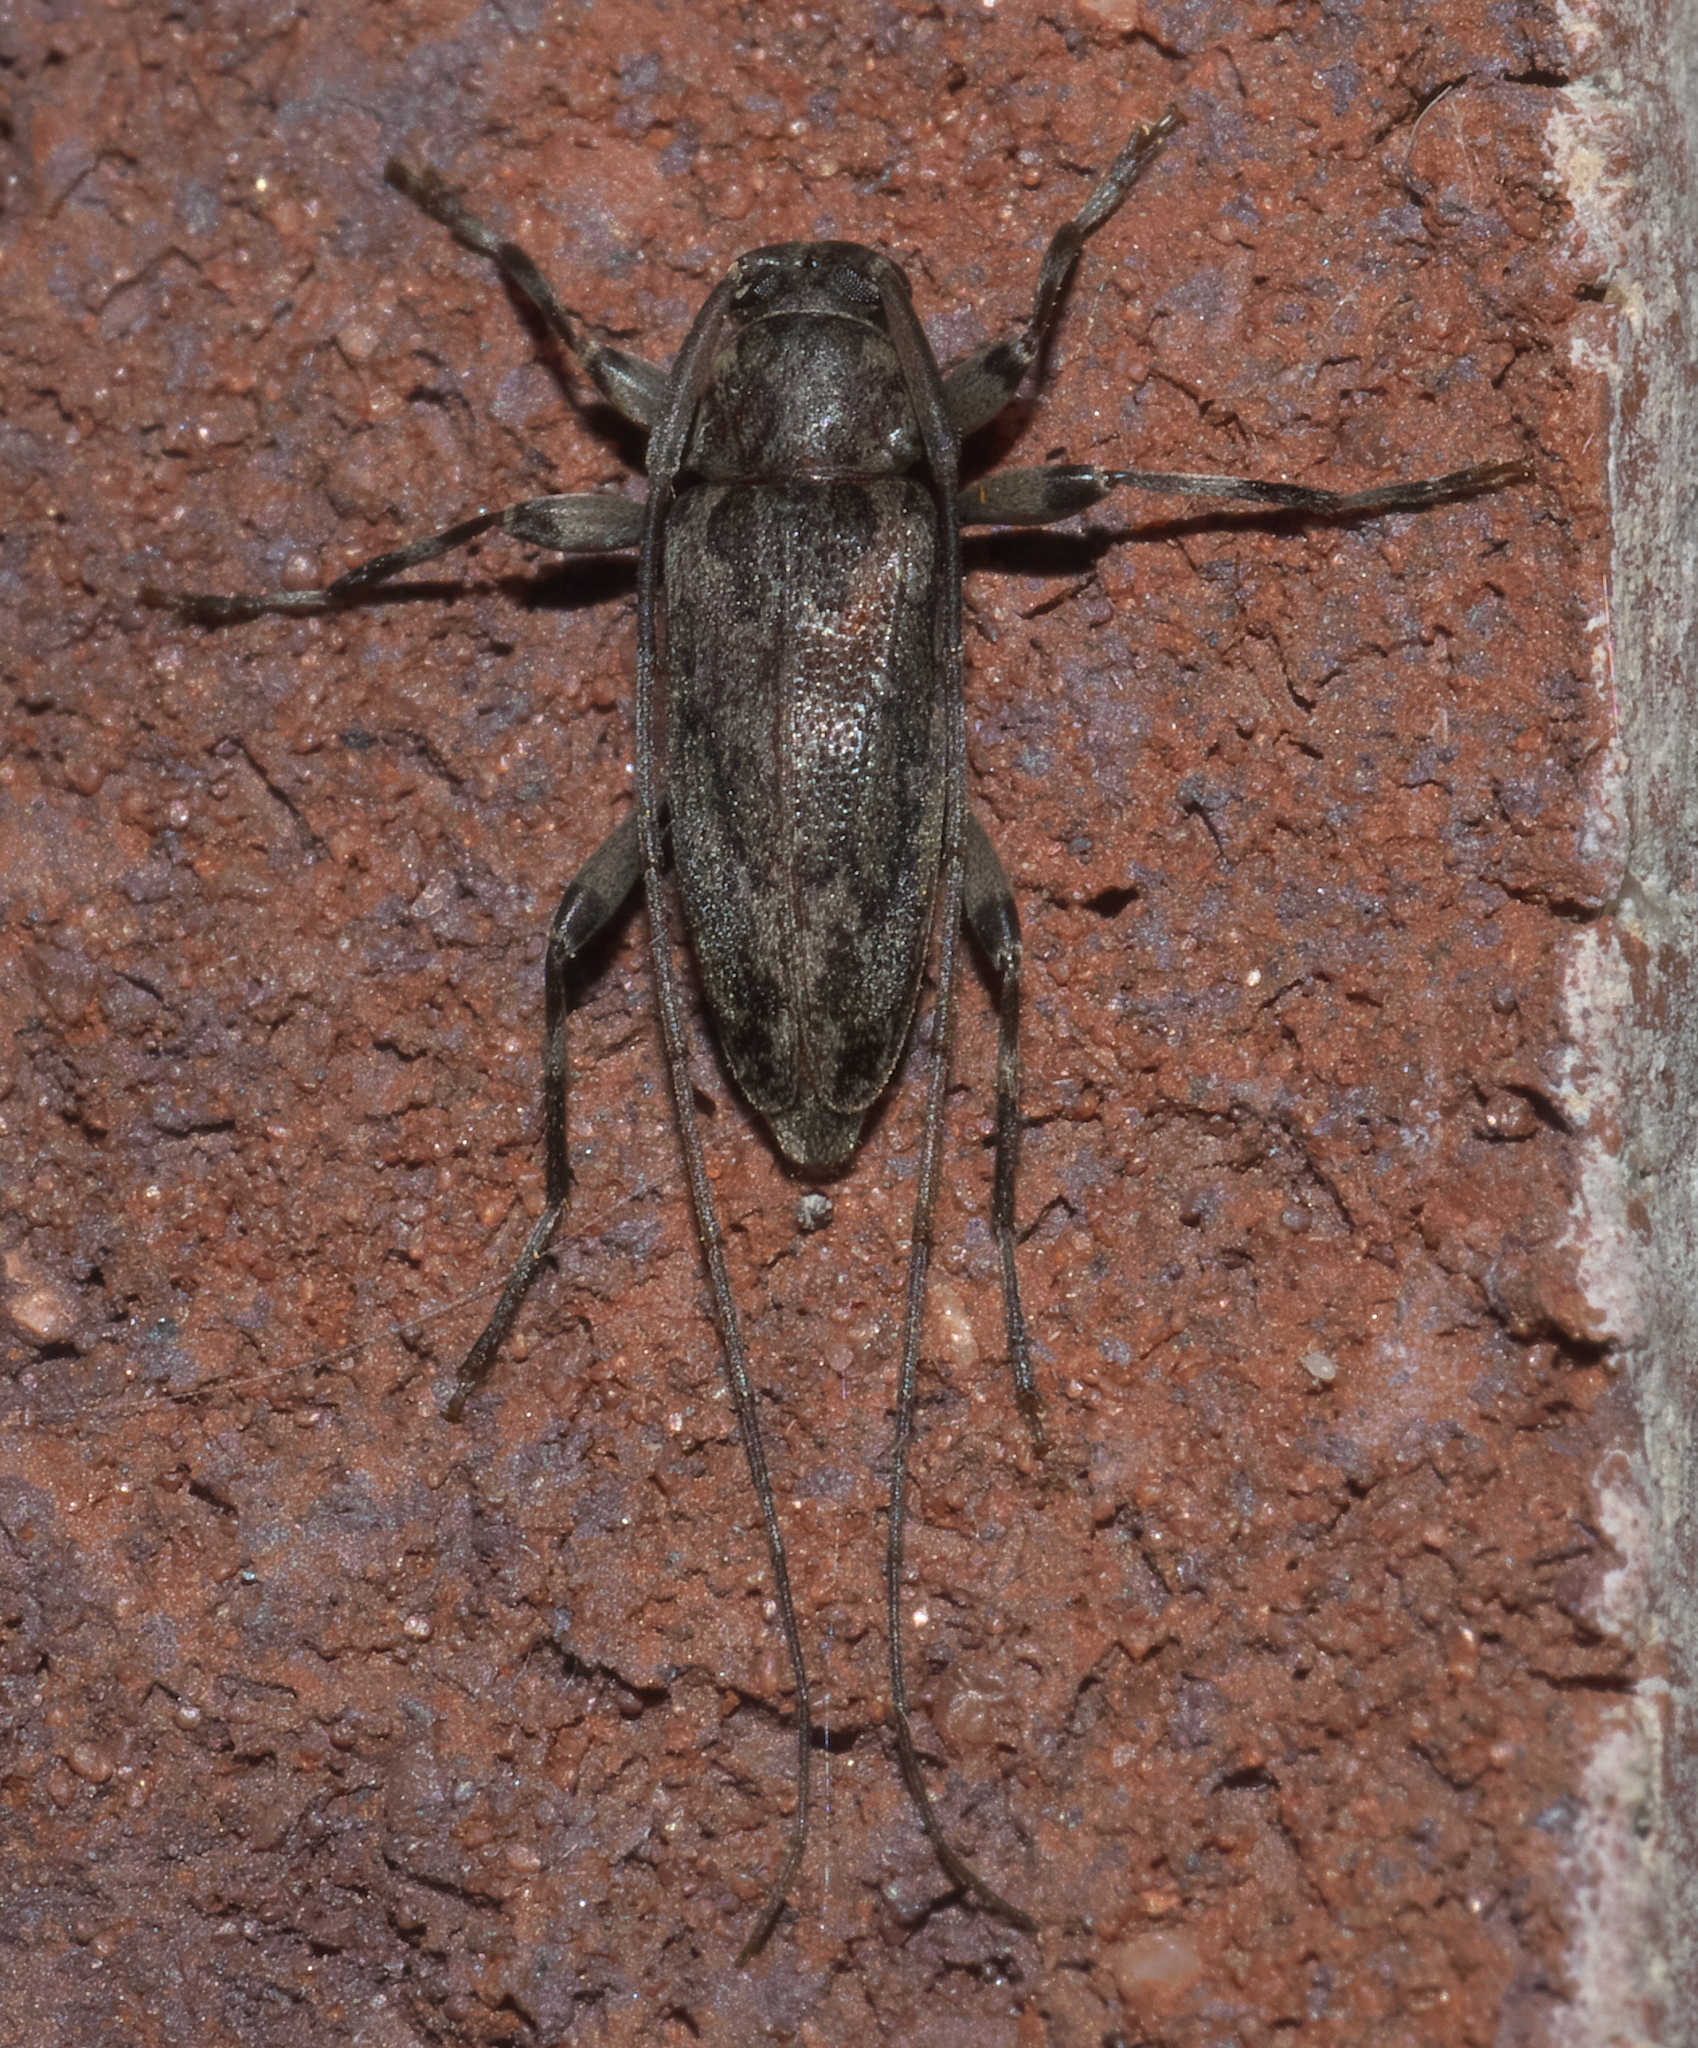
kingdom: Animalia
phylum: Arthropoda
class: Insecta
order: Coleoptera
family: Cerambycidae
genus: Lepturges
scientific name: Lepturges confluens
